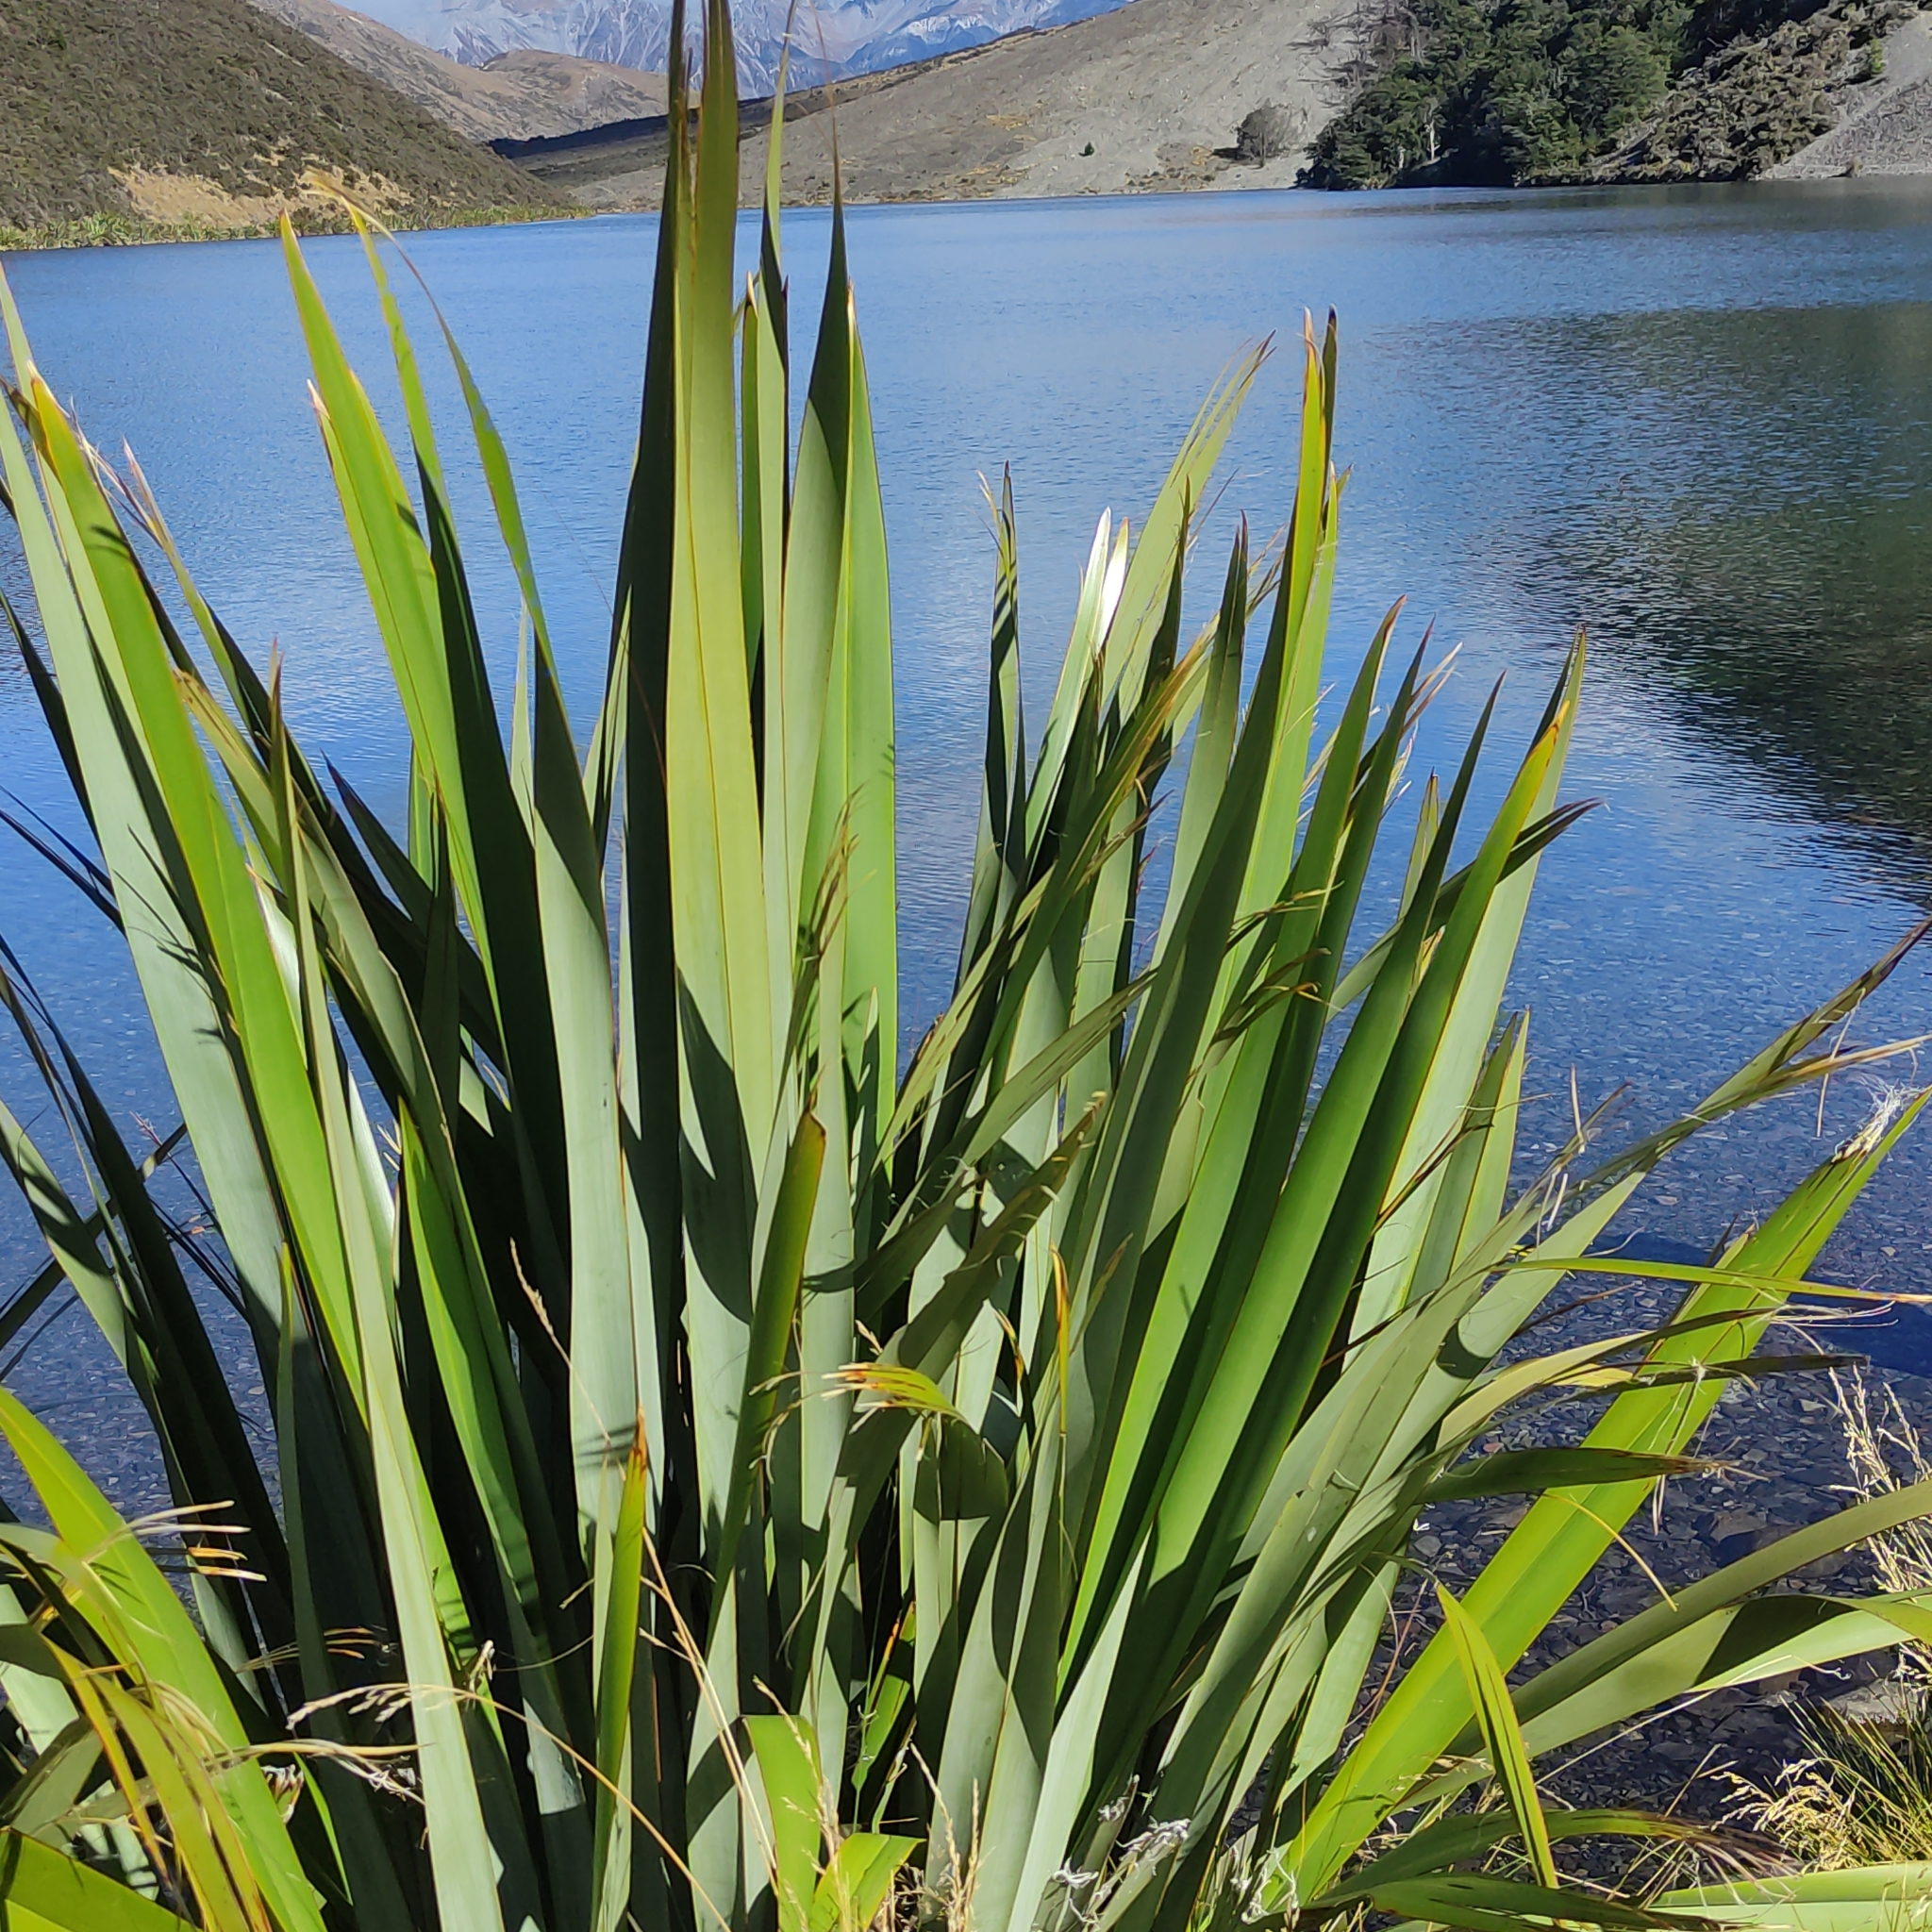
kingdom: Plantae
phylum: Tracheophyta
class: Liliopsida
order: Asparagales
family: Asphodelaceae
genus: Phormium
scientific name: Phormium tenax
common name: New zealand flax
